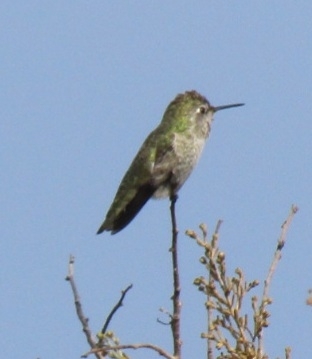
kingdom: Animalia
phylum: Chordata
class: Aves
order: Apodiformes
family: Trochilidae
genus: Calypte
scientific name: Calypte anna
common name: Anna's hummingbird
